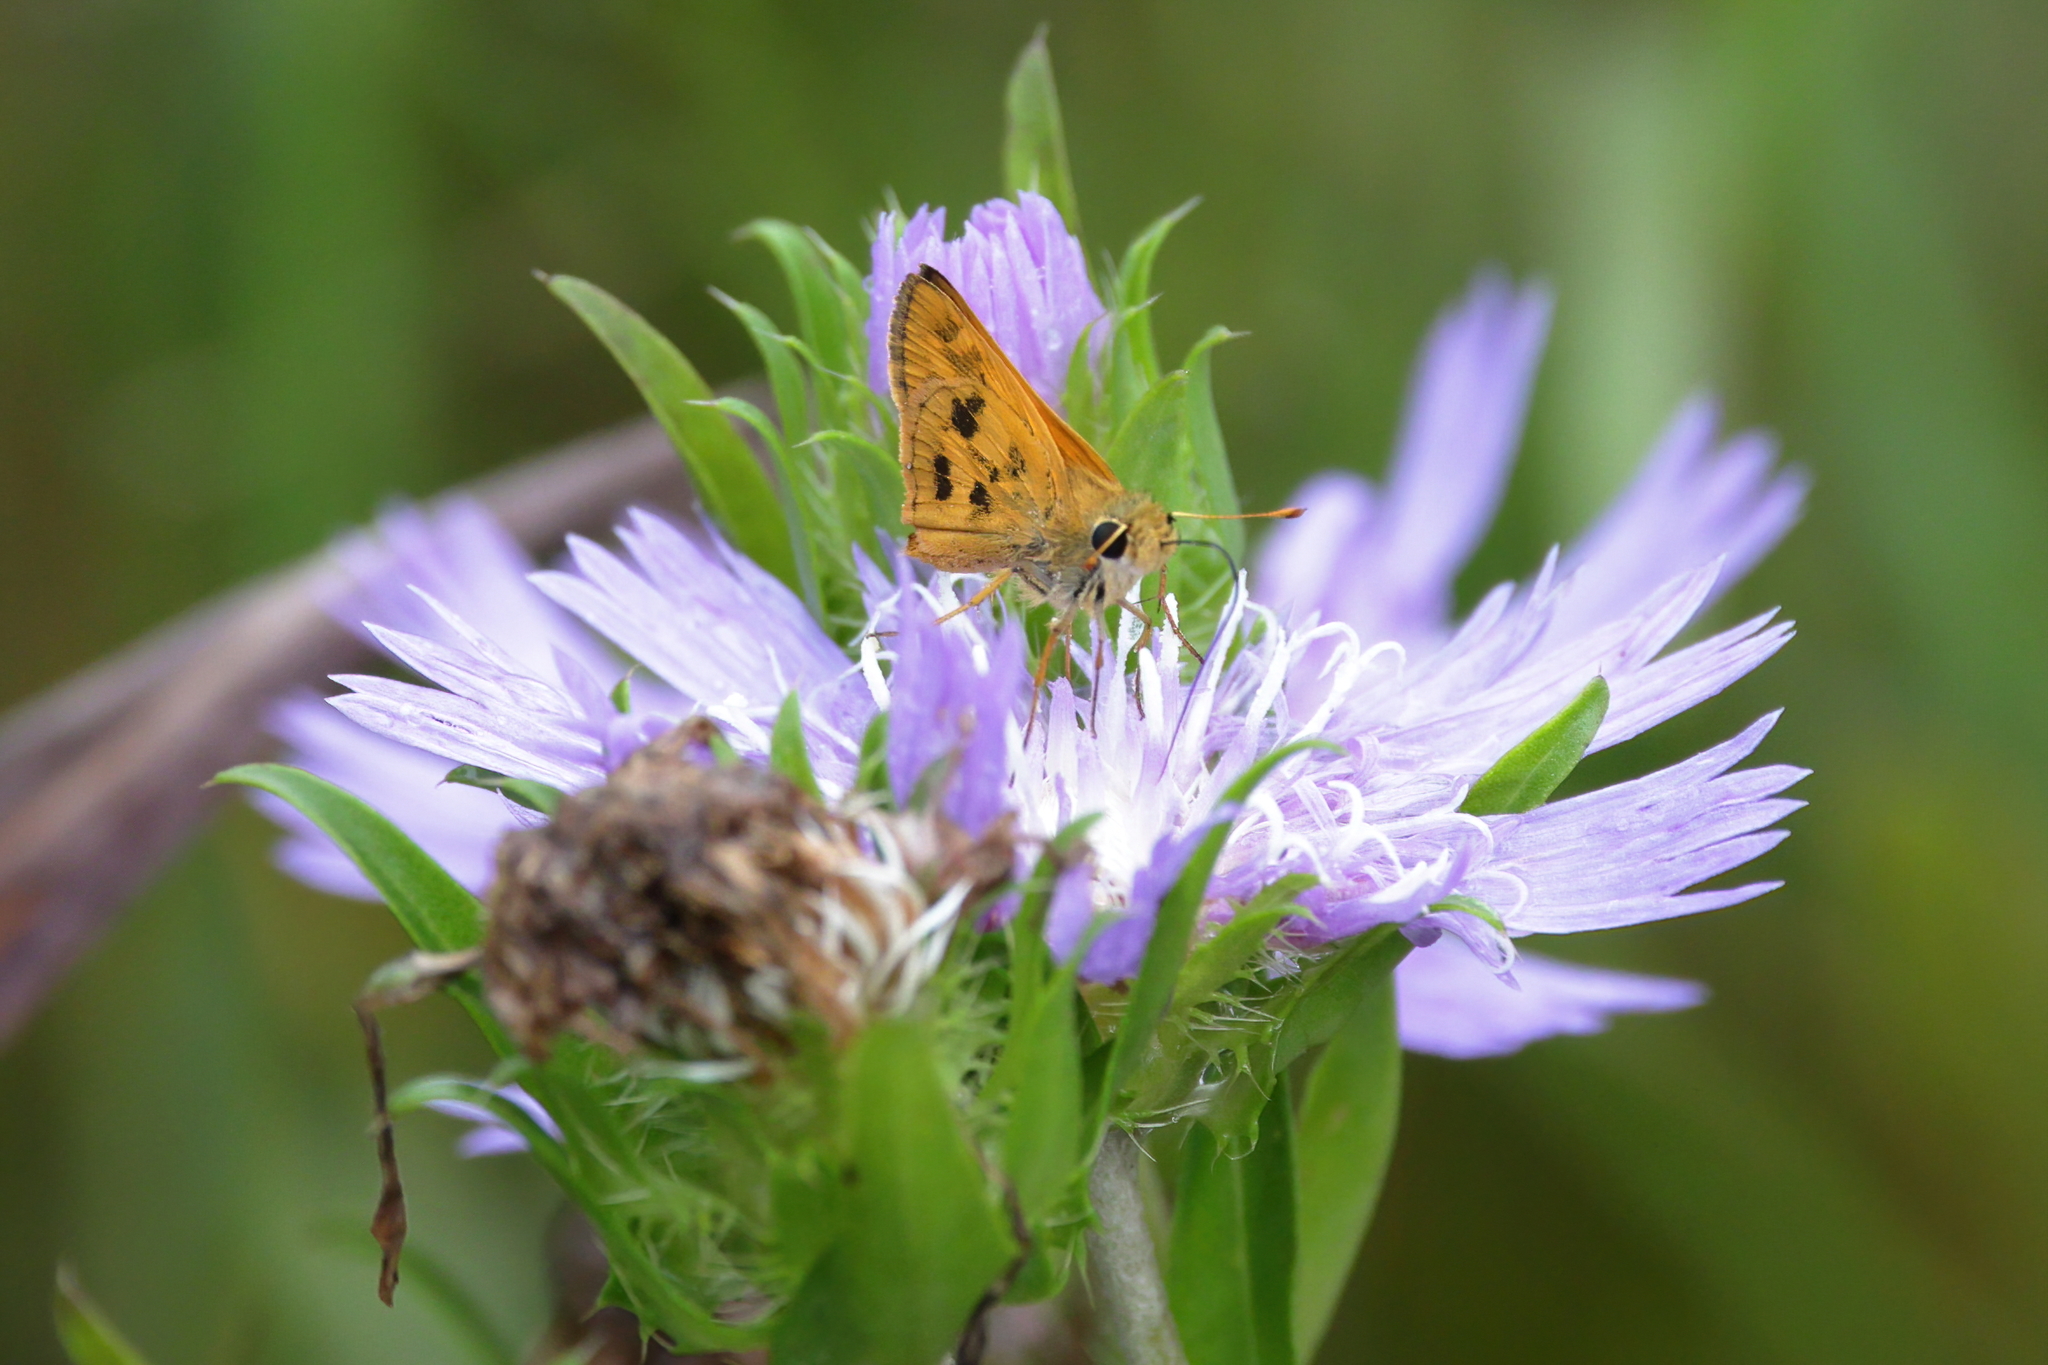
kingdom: Animalia
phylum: Arthropoda
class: Insecta
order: Lepidoptera
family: Hesperiidae
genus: Polites
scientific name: Polites vibex
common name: Whirlabout
